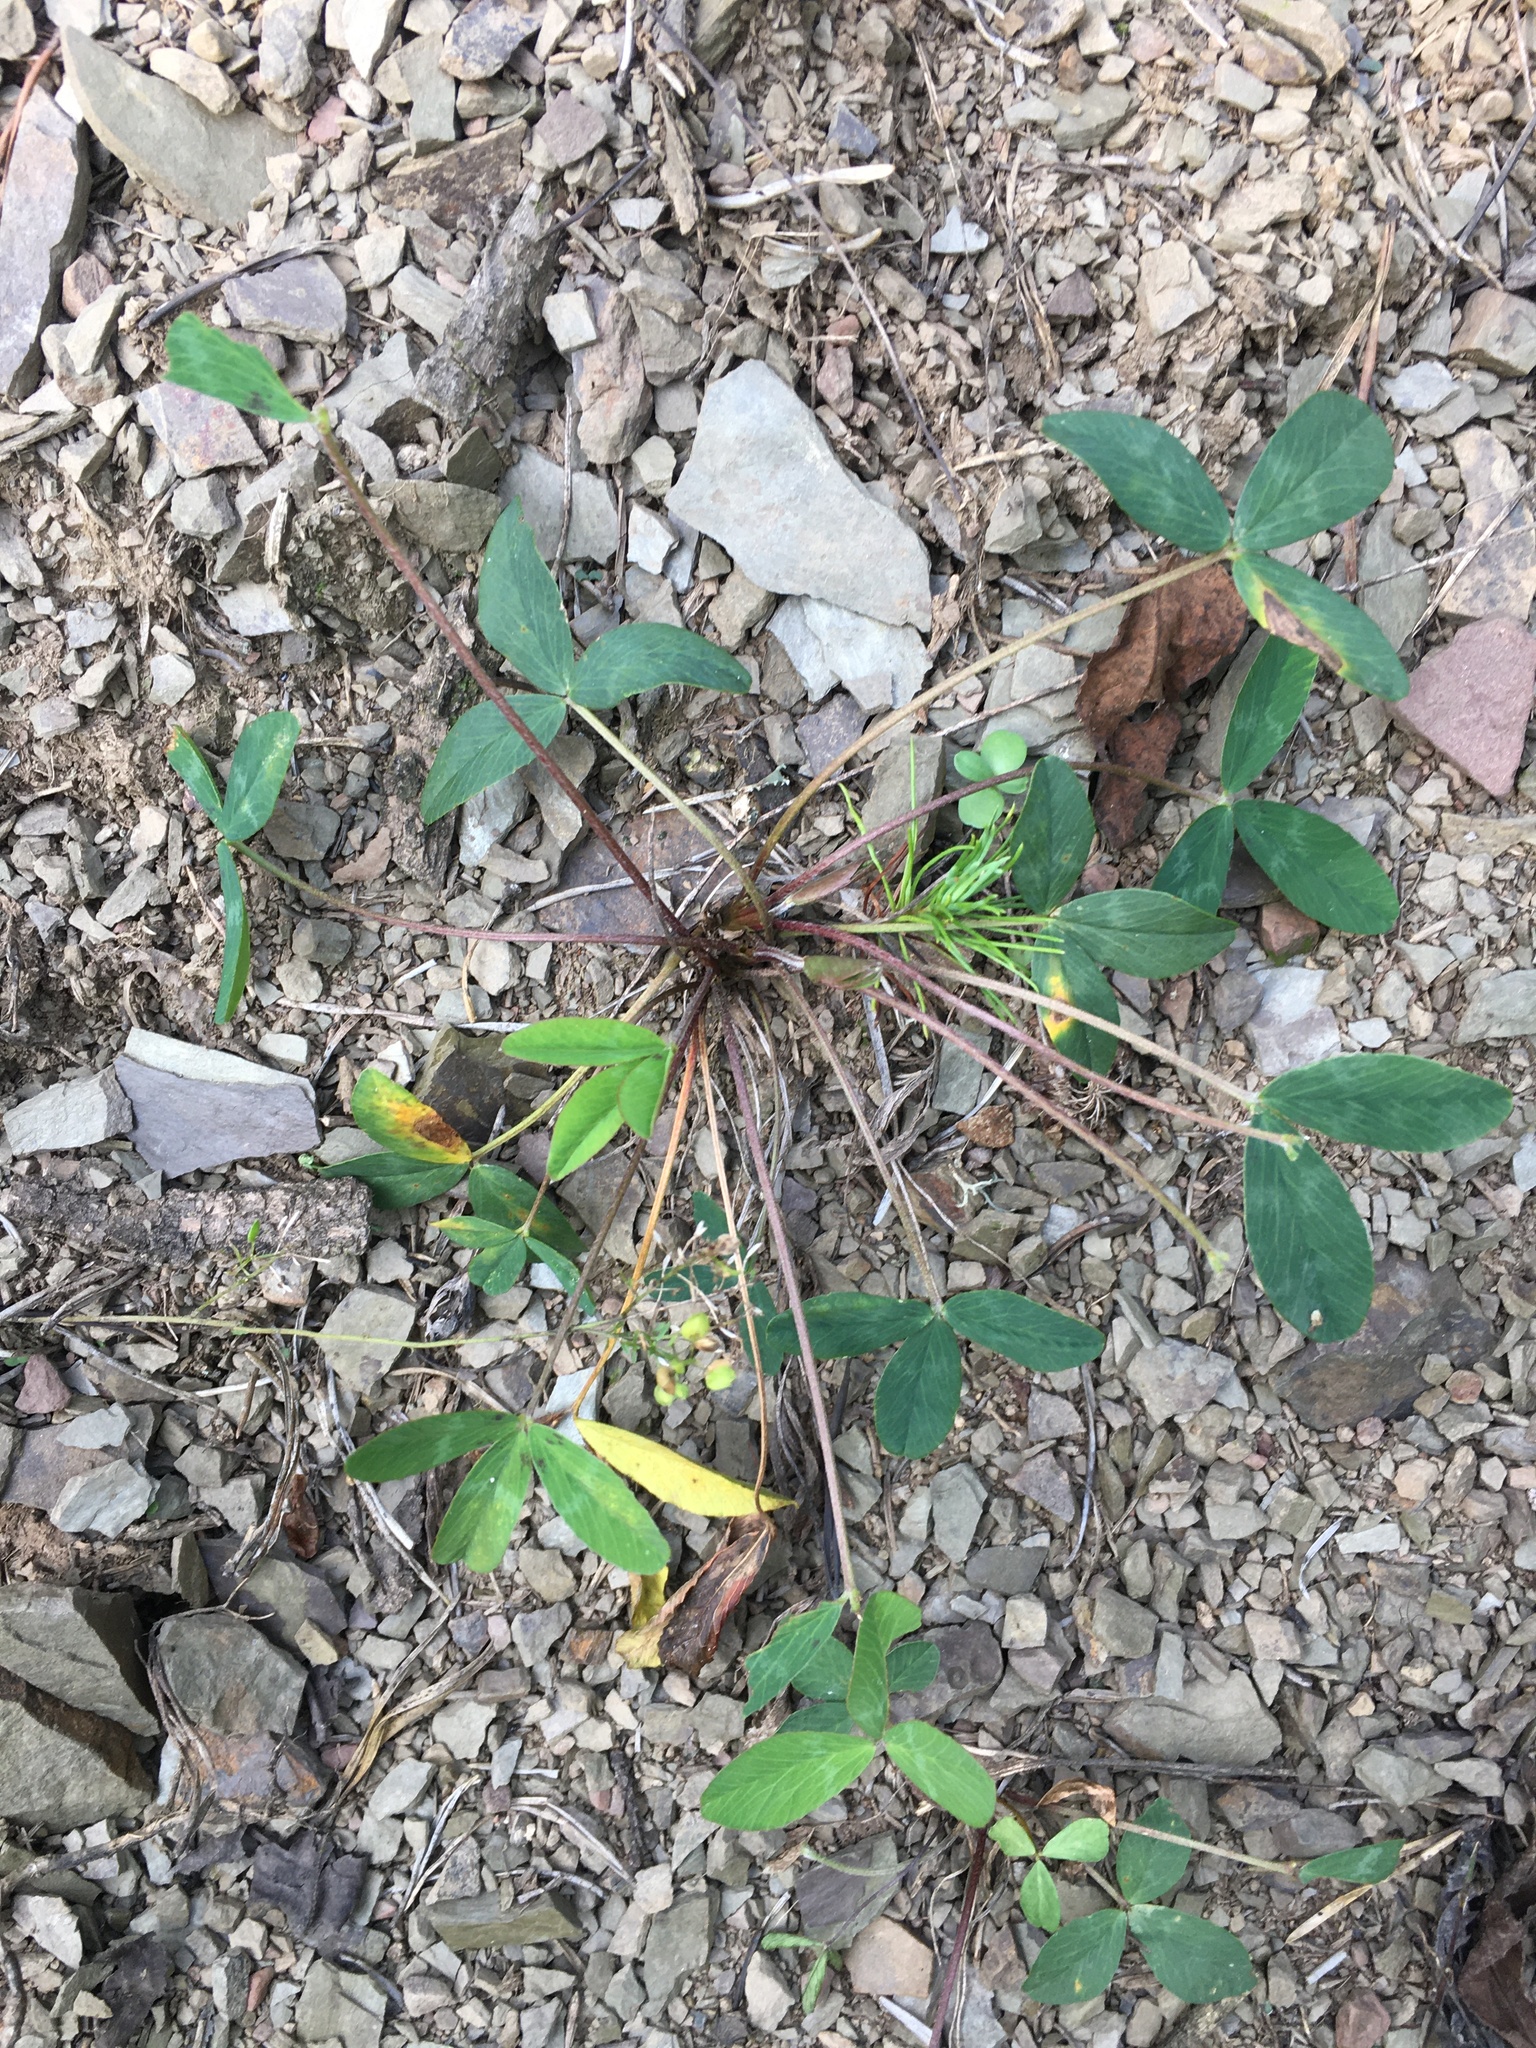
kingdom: Plantae
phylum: Tracheophyta
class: Magnoliopsida
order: Fabales
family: Fabaceae
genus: Trifolium
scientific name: Trifolium virginicum
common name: Kate's mountain clover
